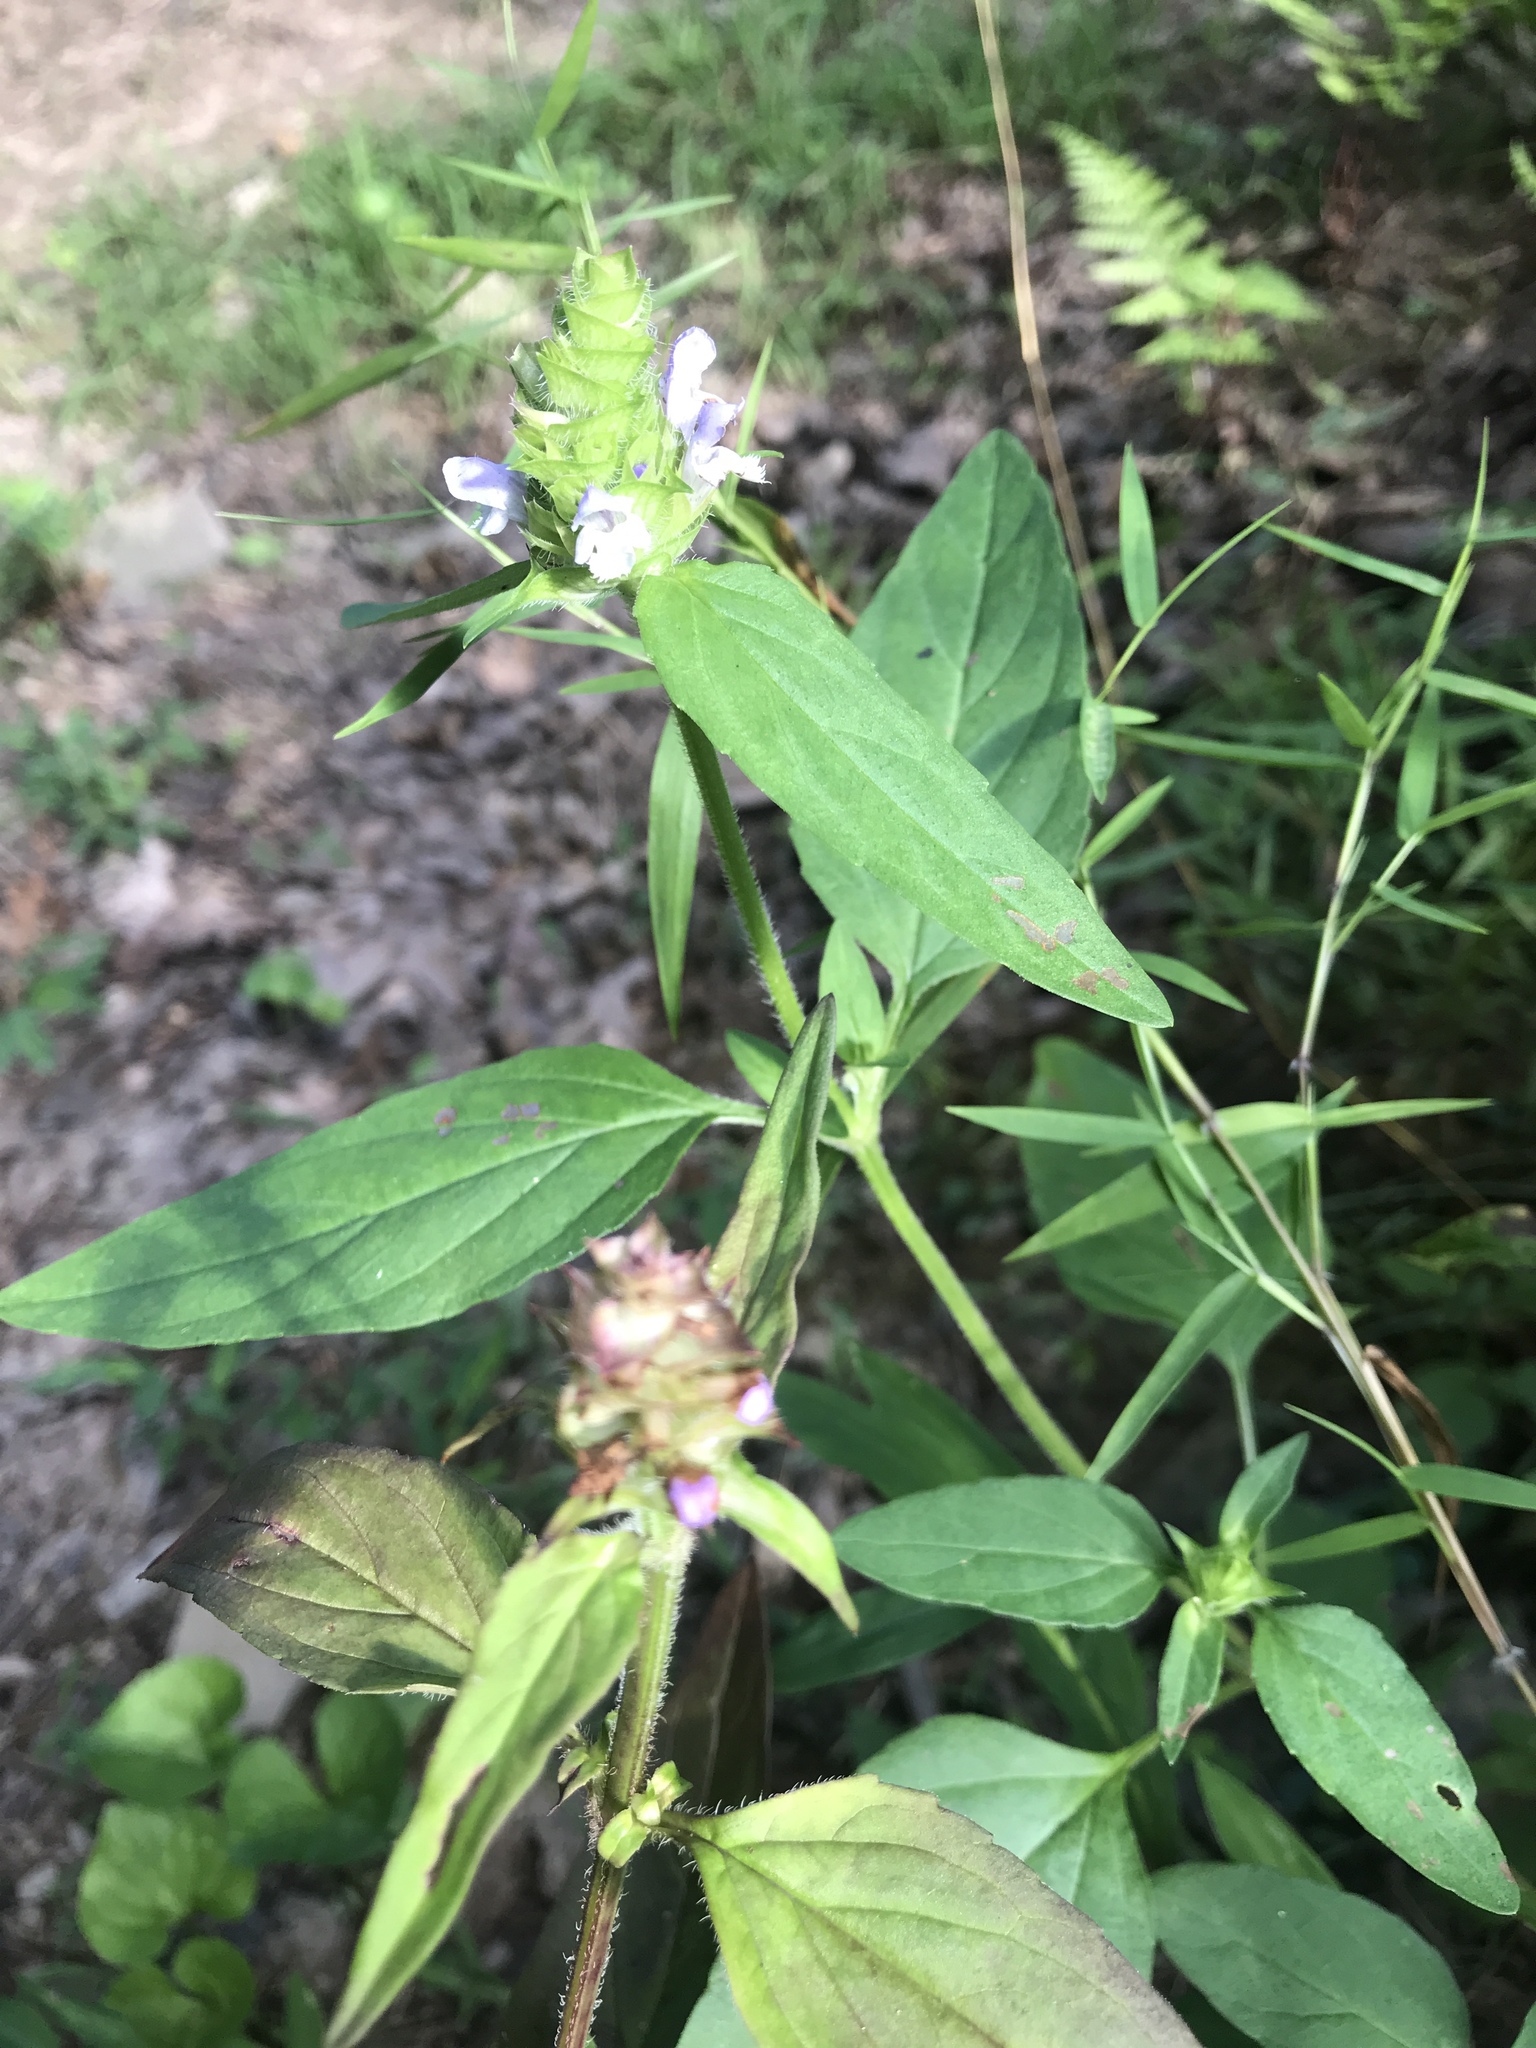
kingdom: Plantae
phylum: Tracheophyta
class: Magnoliopsida
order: Lamiales
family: Lamiaceae
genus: Prunella
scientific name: Prunella vulgaris
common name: Heal-all
